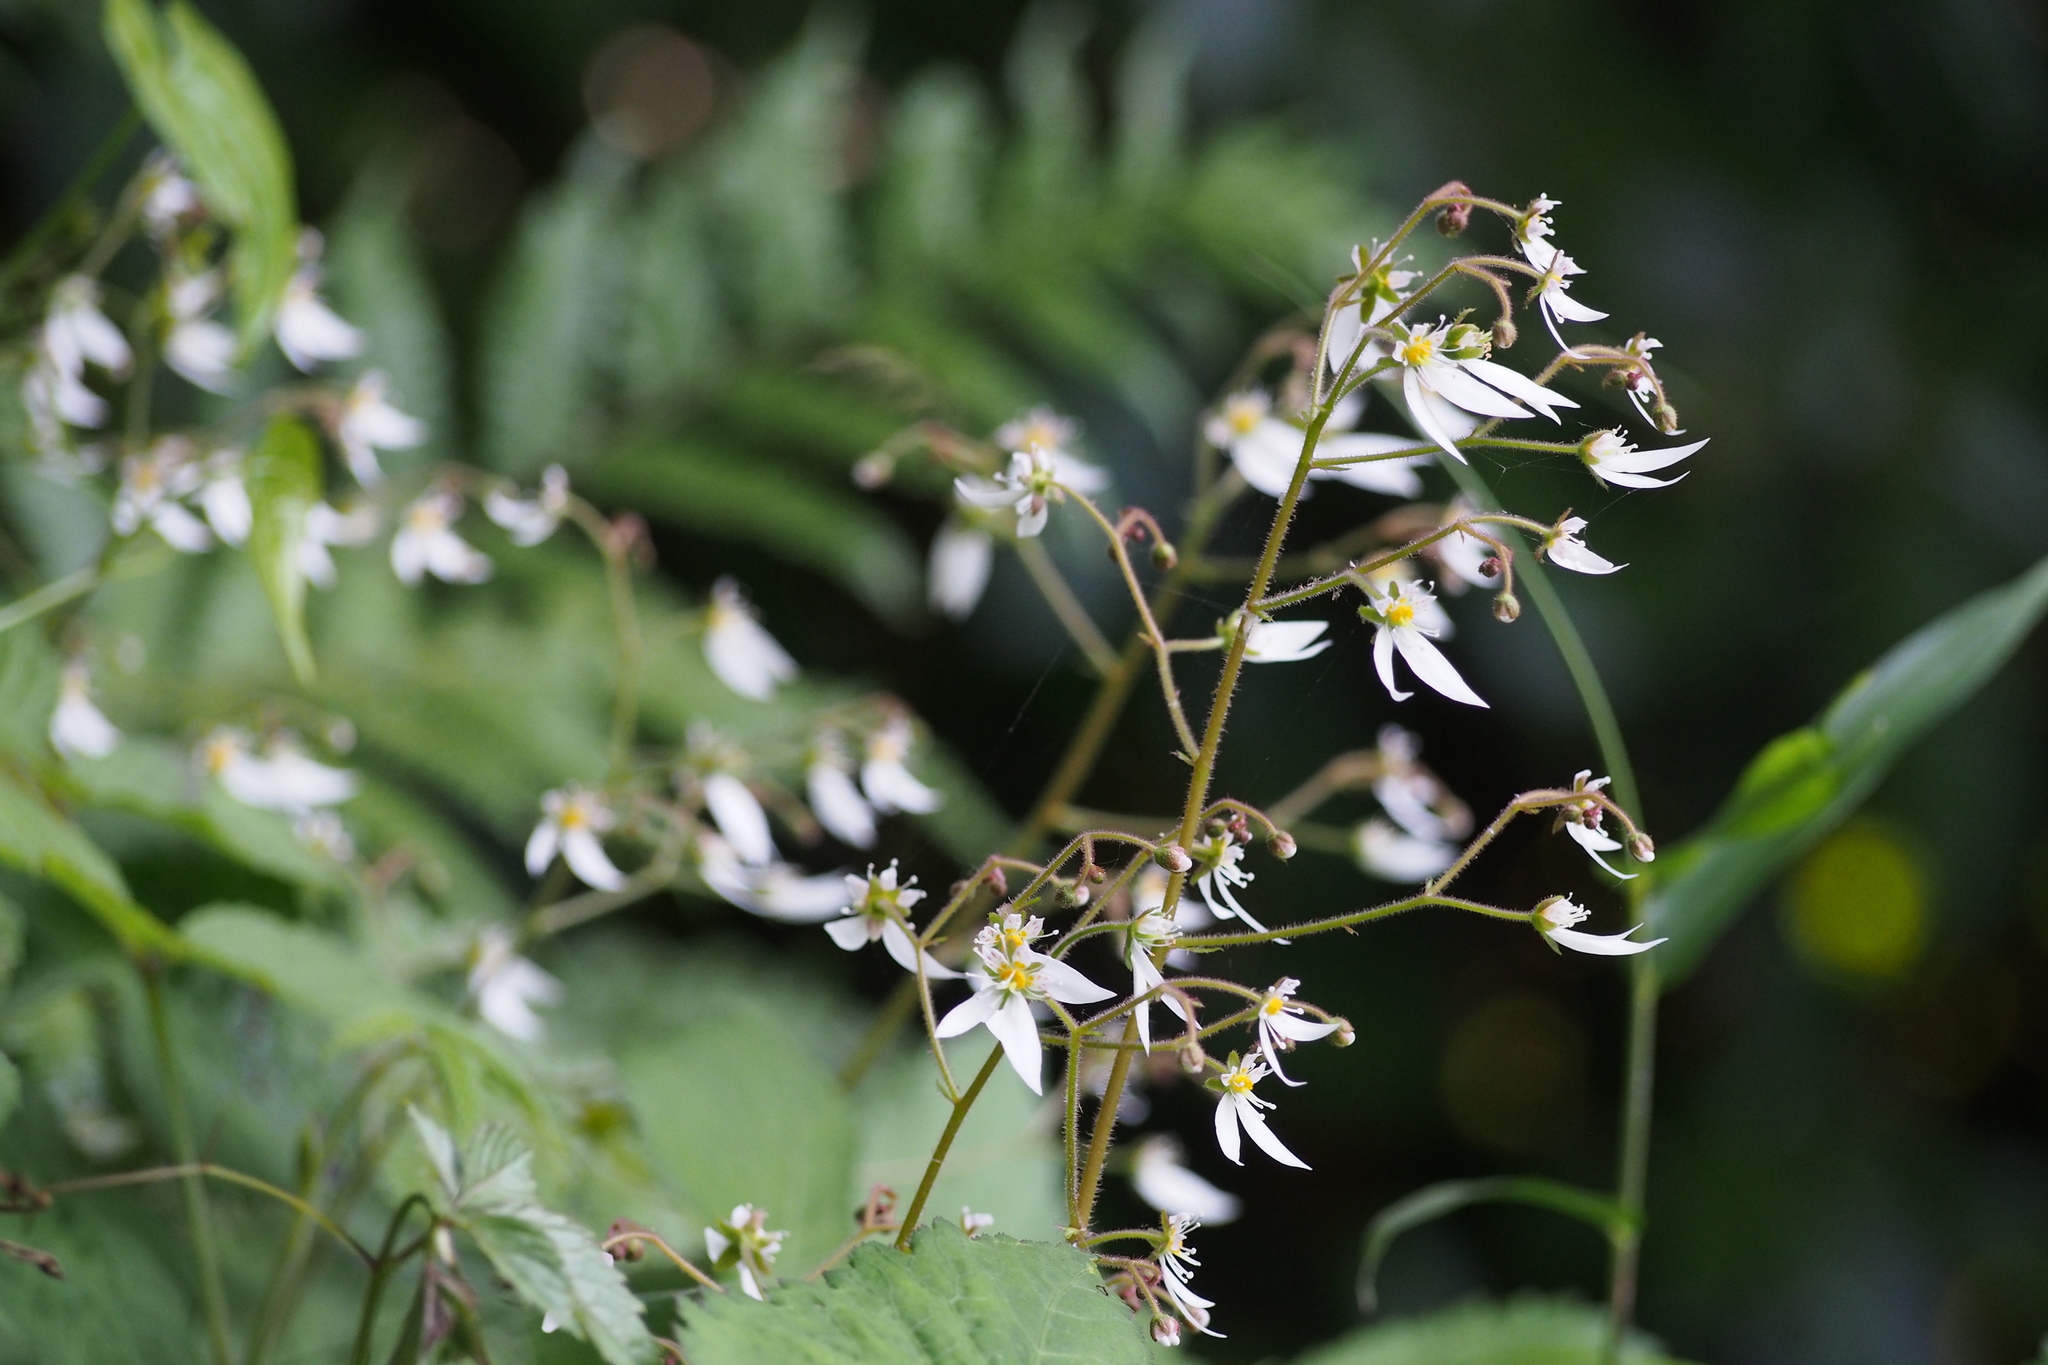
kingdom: Plantae
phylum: Tracheophyta
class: Magnoliopsida
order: Saxifragales
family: Saxifragaceae
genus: Saxifraga
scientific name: Saxifraga stolonifera
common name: Creeping saxifrage
